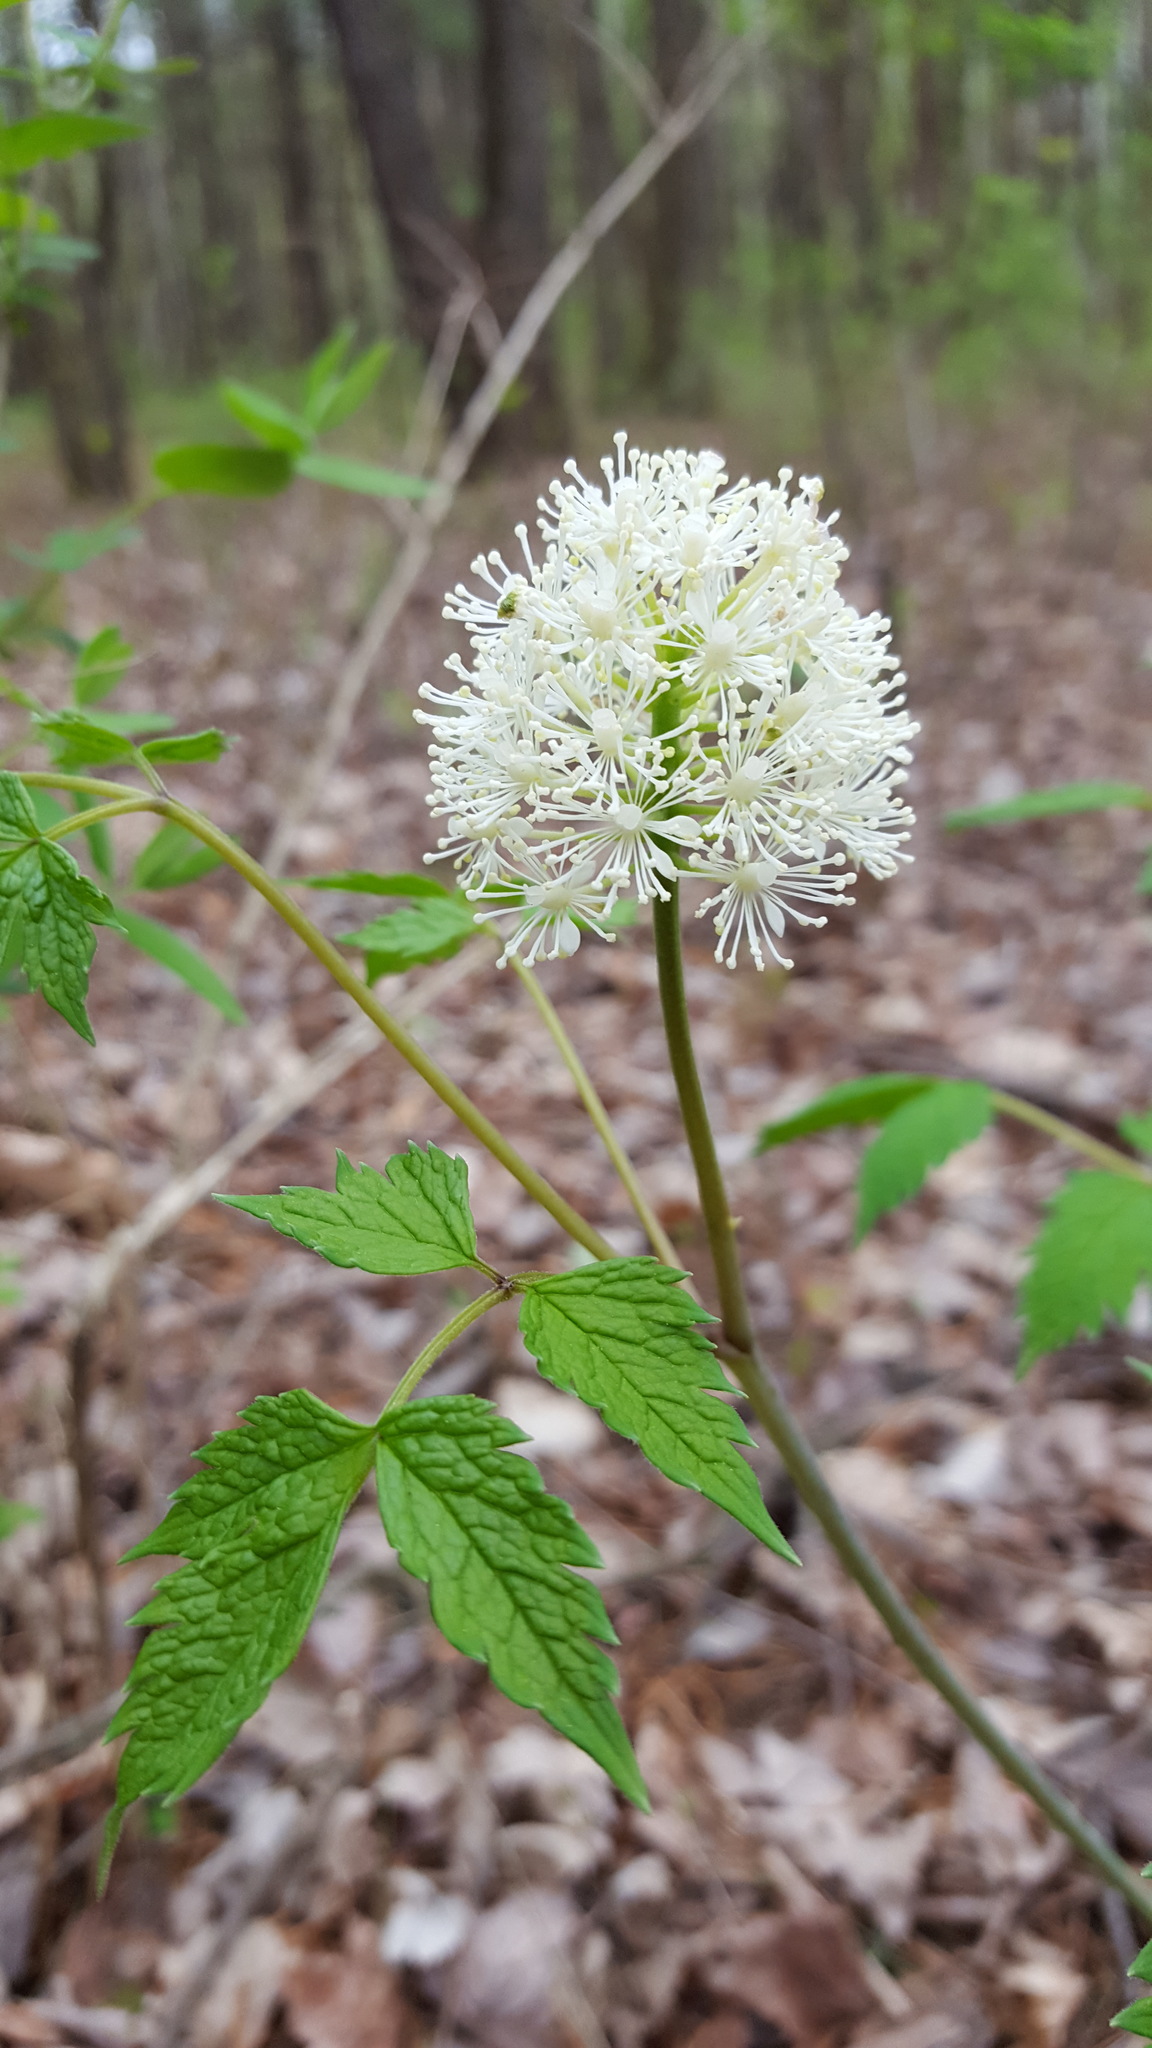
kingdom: Plantae
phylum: Tracheophyta
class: Magnoliopsida
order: Ranunculales
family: Ranunculaceae
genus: Actaea
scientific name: Actaea rubra
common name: Red baneberry
